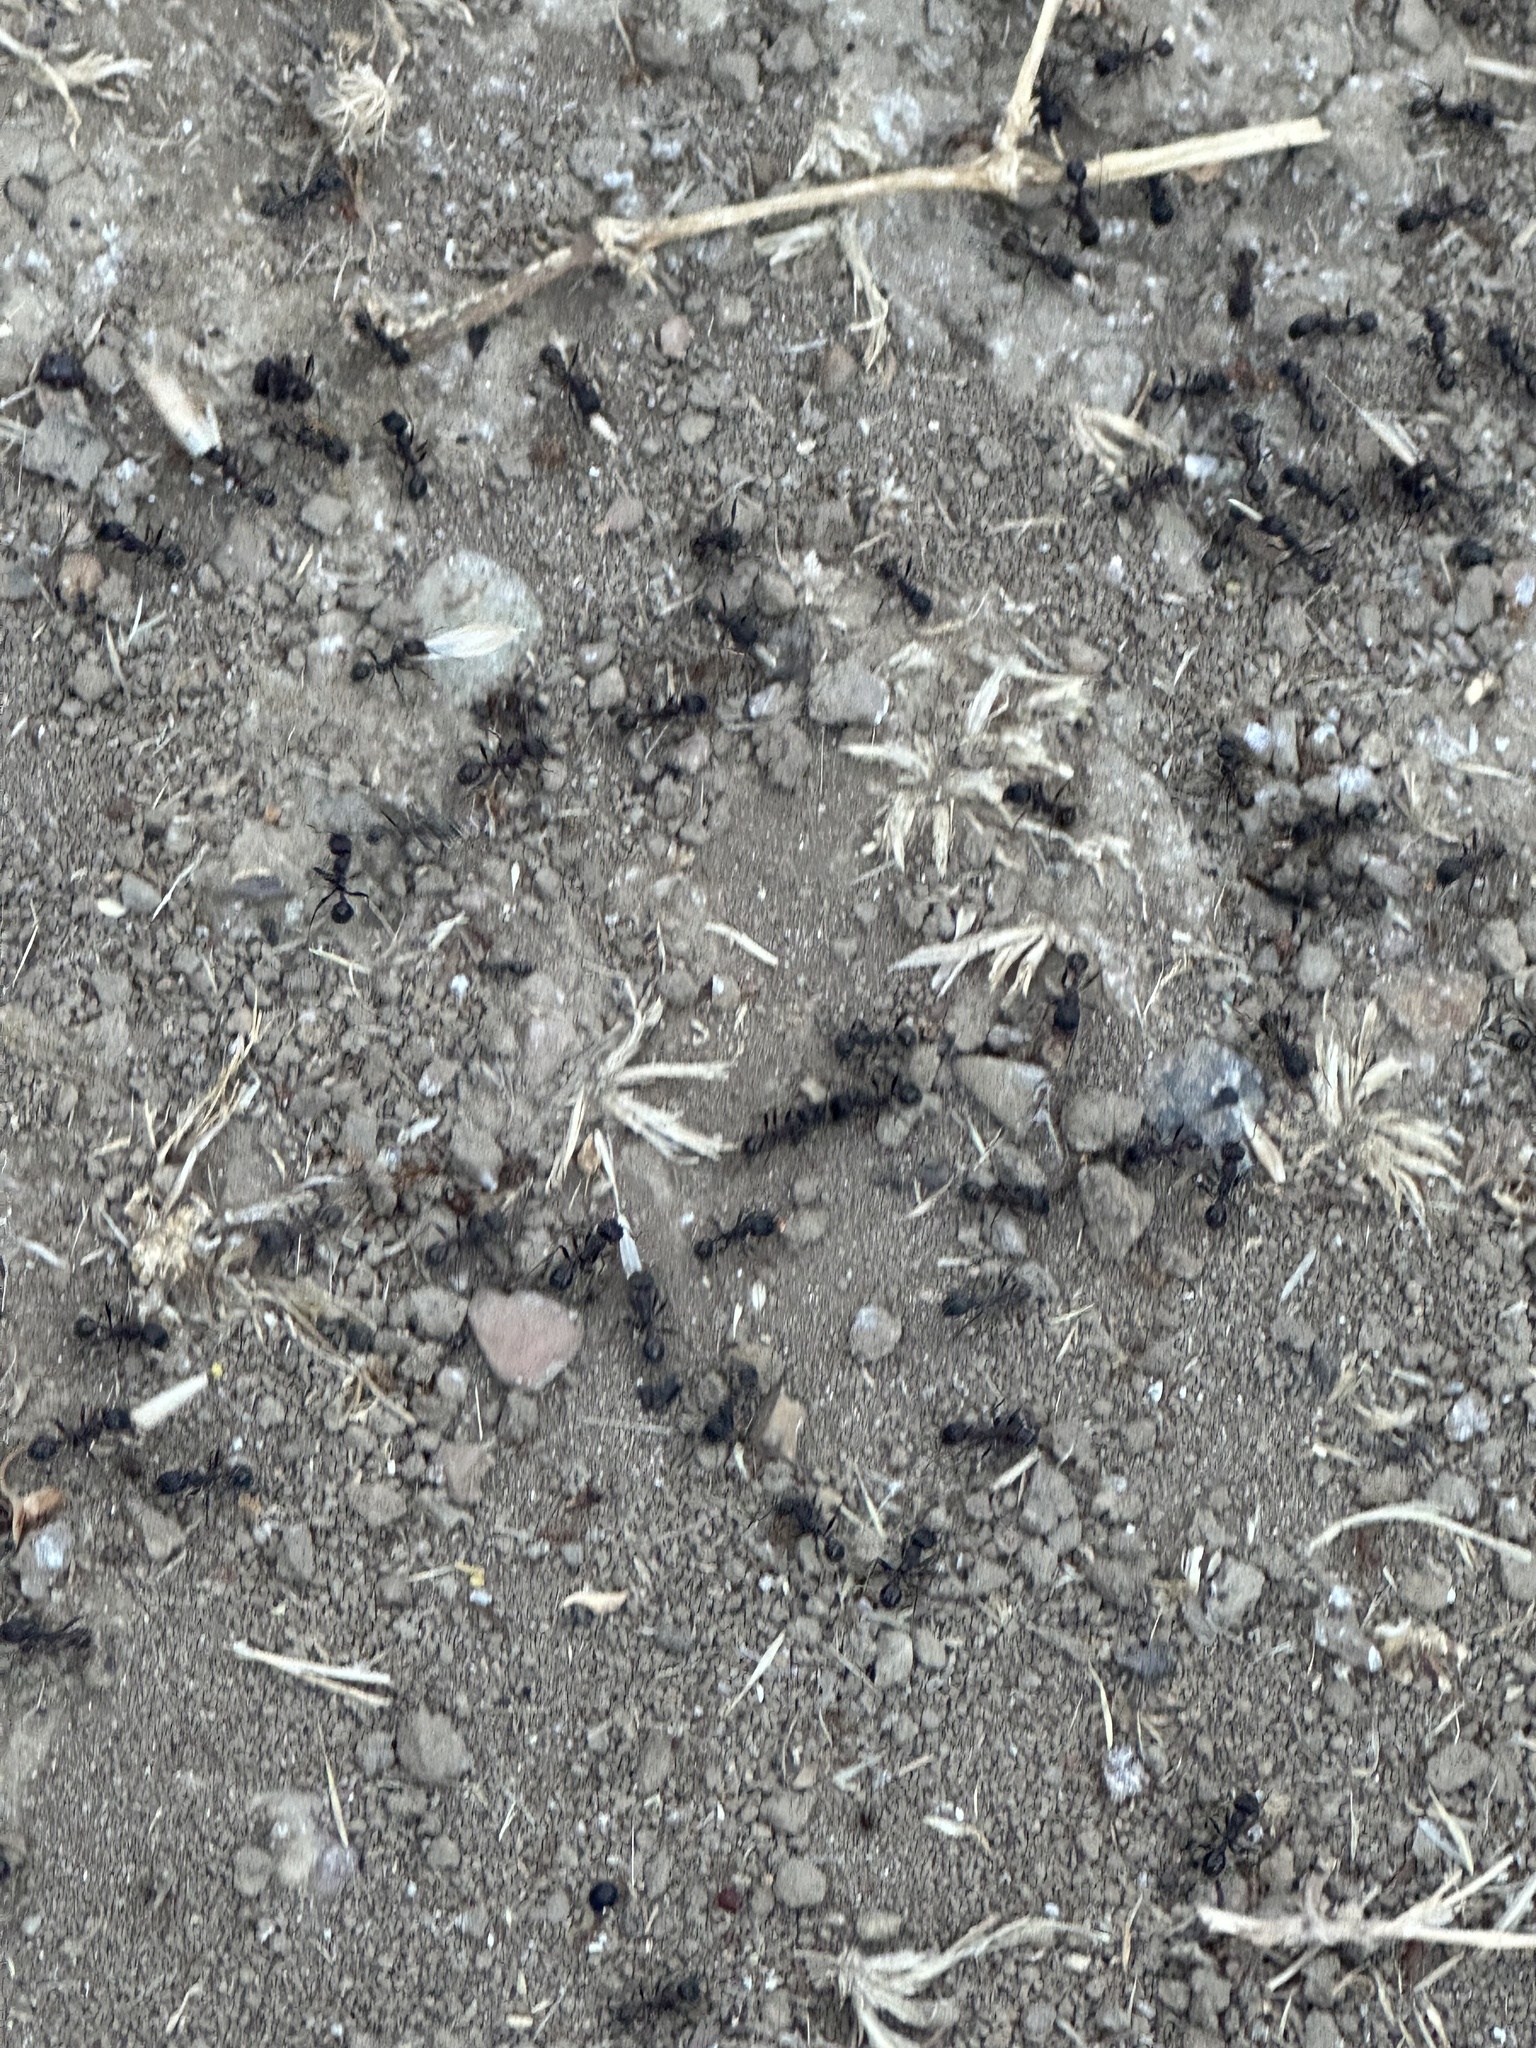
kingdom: Animalia
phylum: Arthropoda
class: Insecta
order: Hymenoptera
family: Formicidae
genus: Veromessor
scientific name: Veromessor andrei
